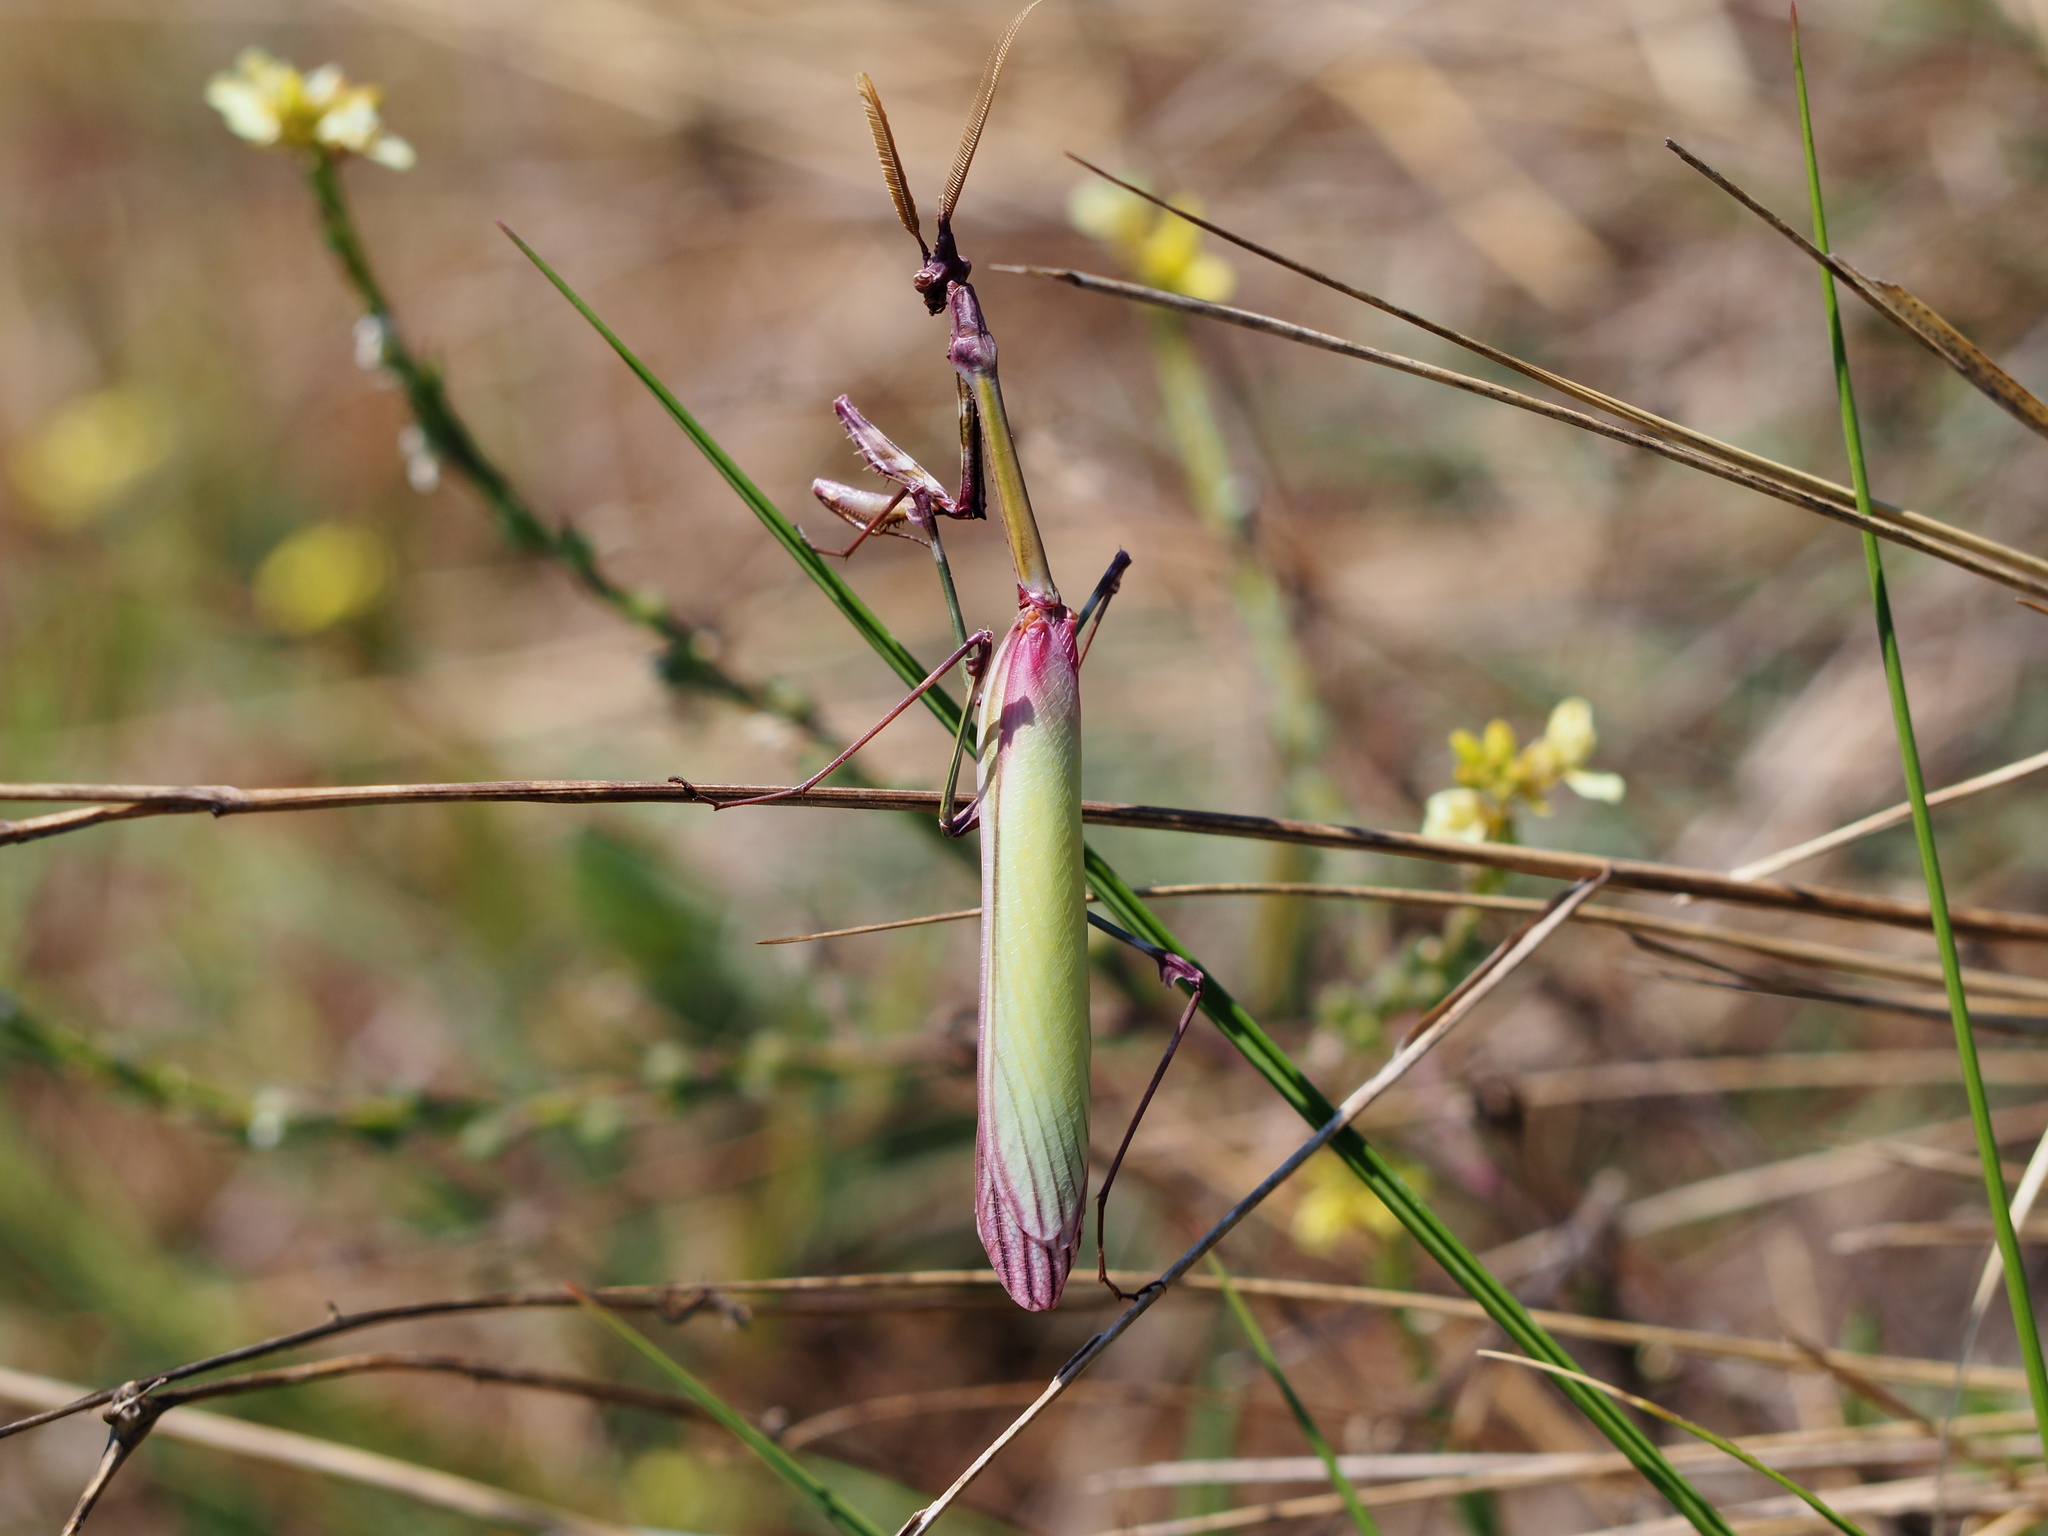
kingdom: Animalia
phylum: Arthropoda
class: Insecta
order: Mantodea
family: Empusidae
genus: Empusa
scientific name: Empusa pennata
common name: Conehead mantis
